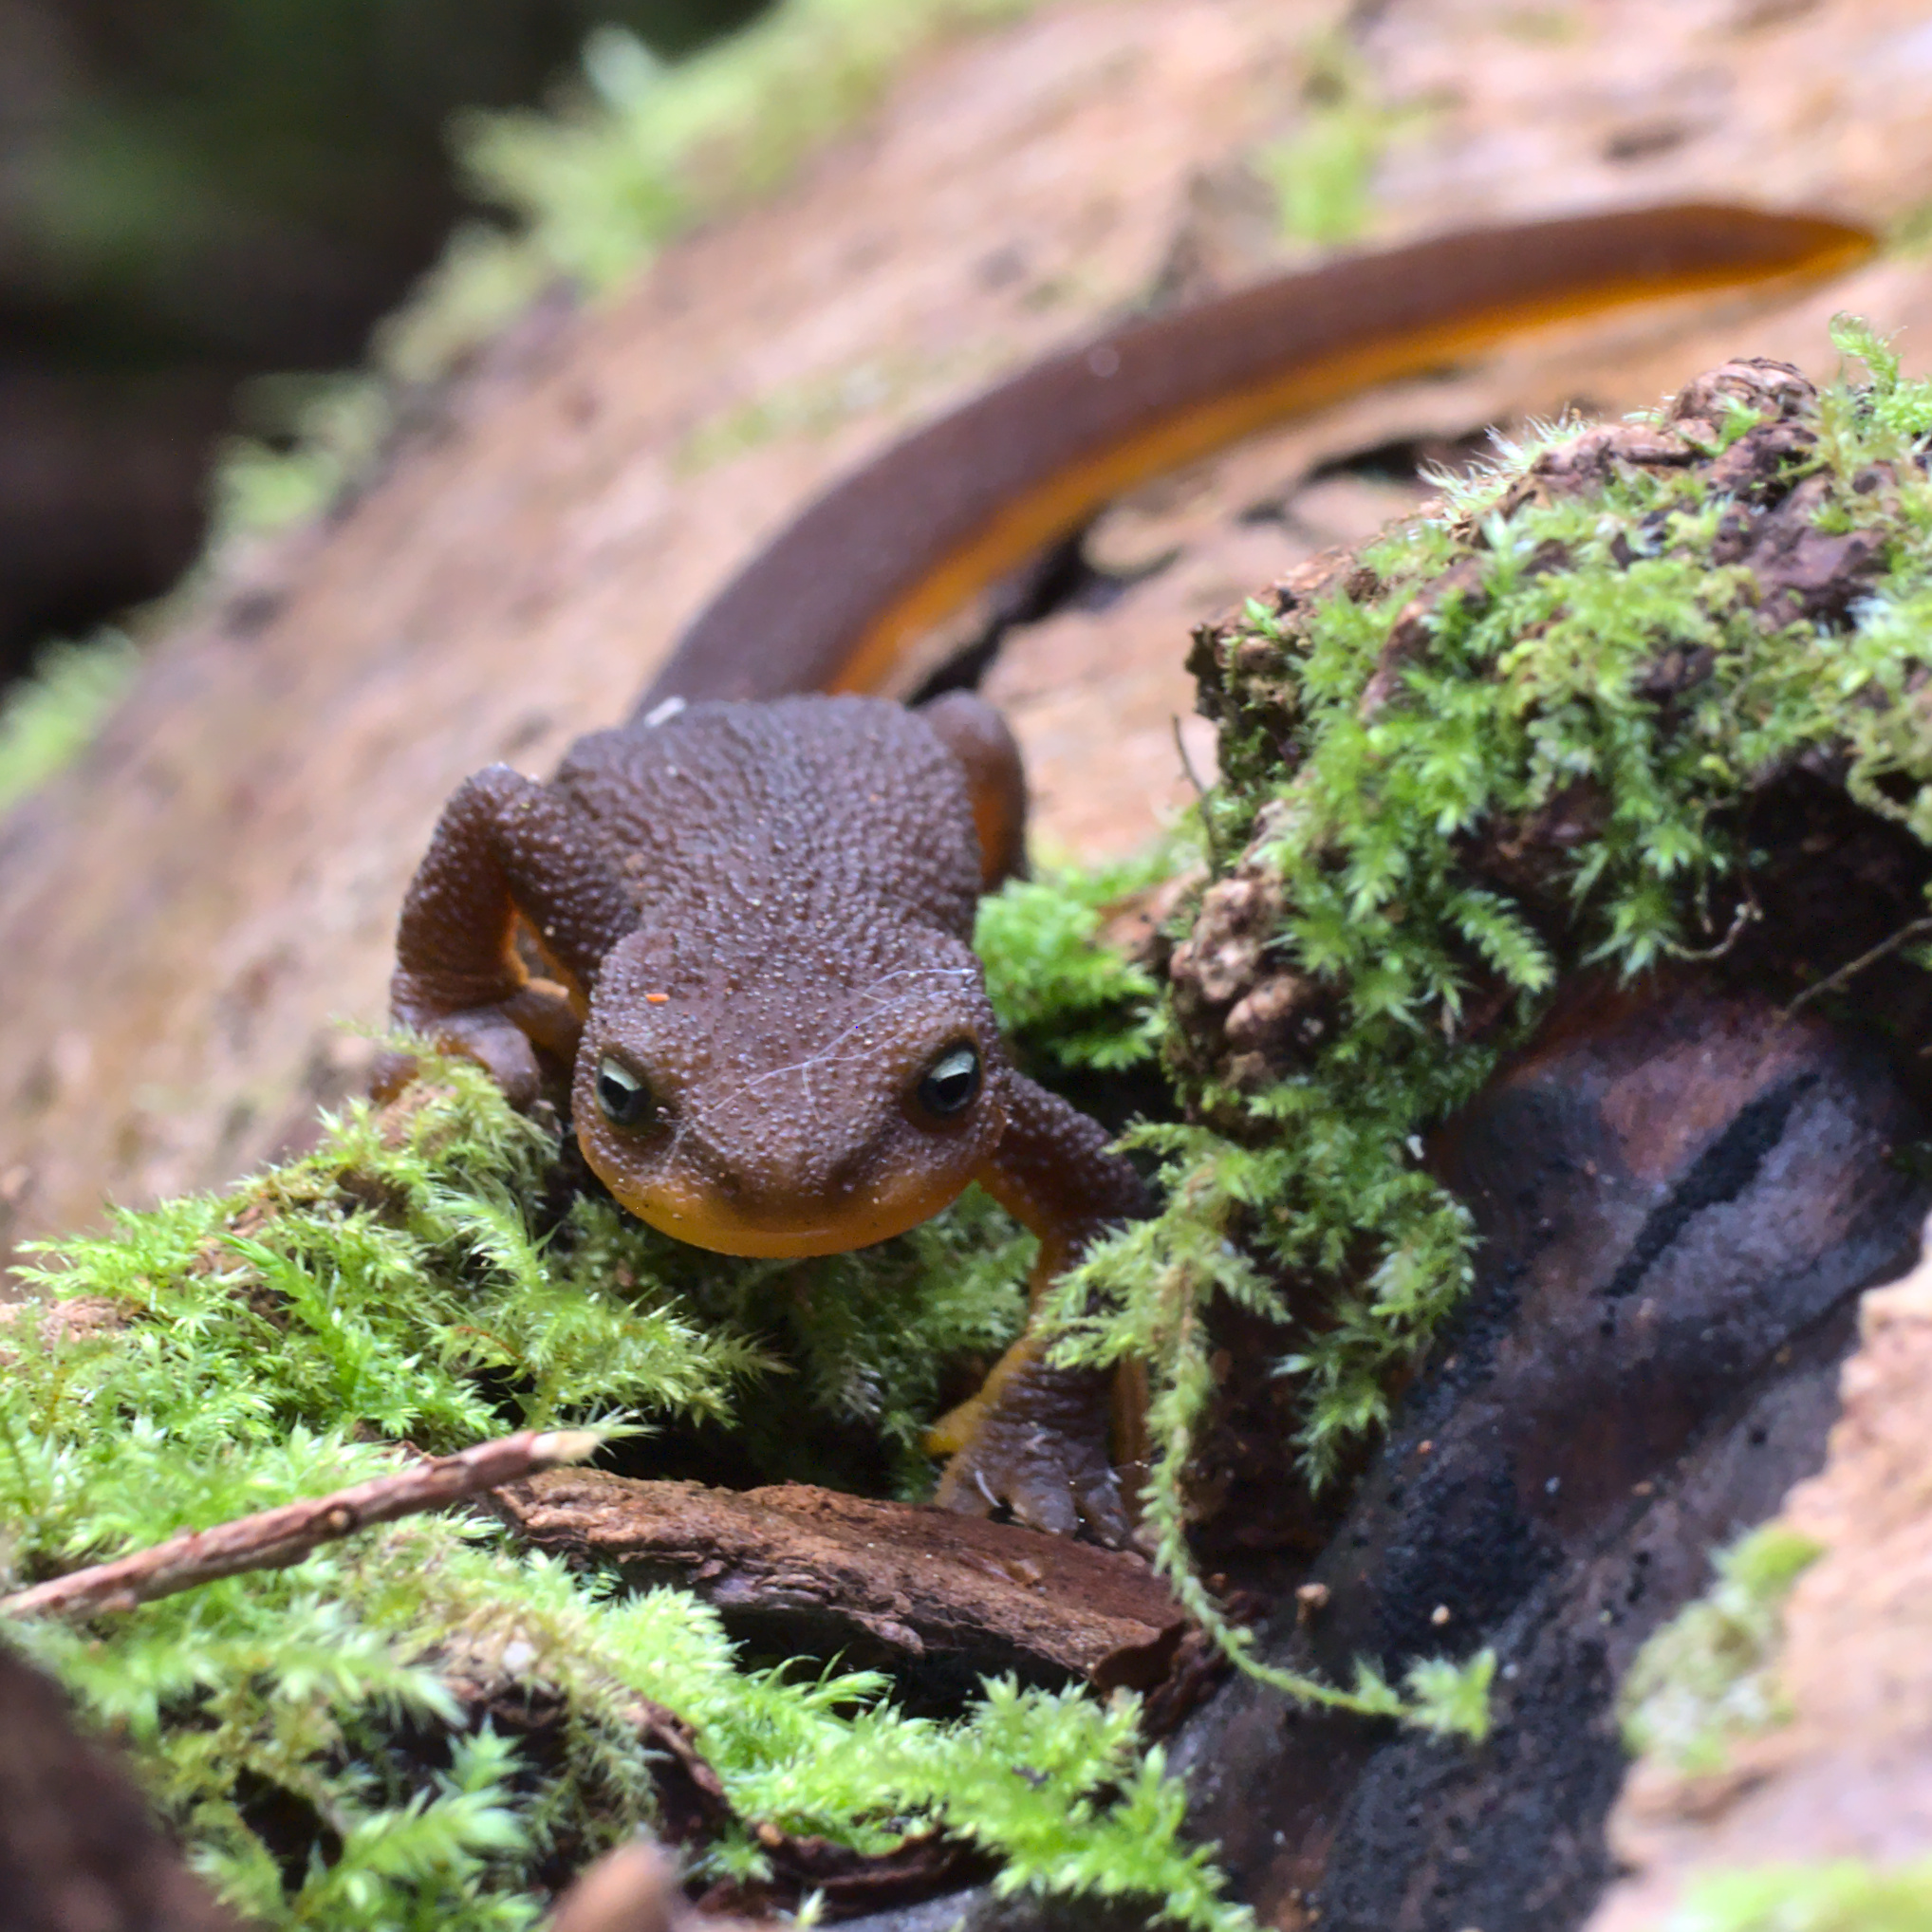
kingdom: Animalia
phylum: Chordata
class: Amphibia
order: Caudata
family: Salamandridae
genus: Taricha
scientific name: Taricha granulosa
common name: Roughskin newt
